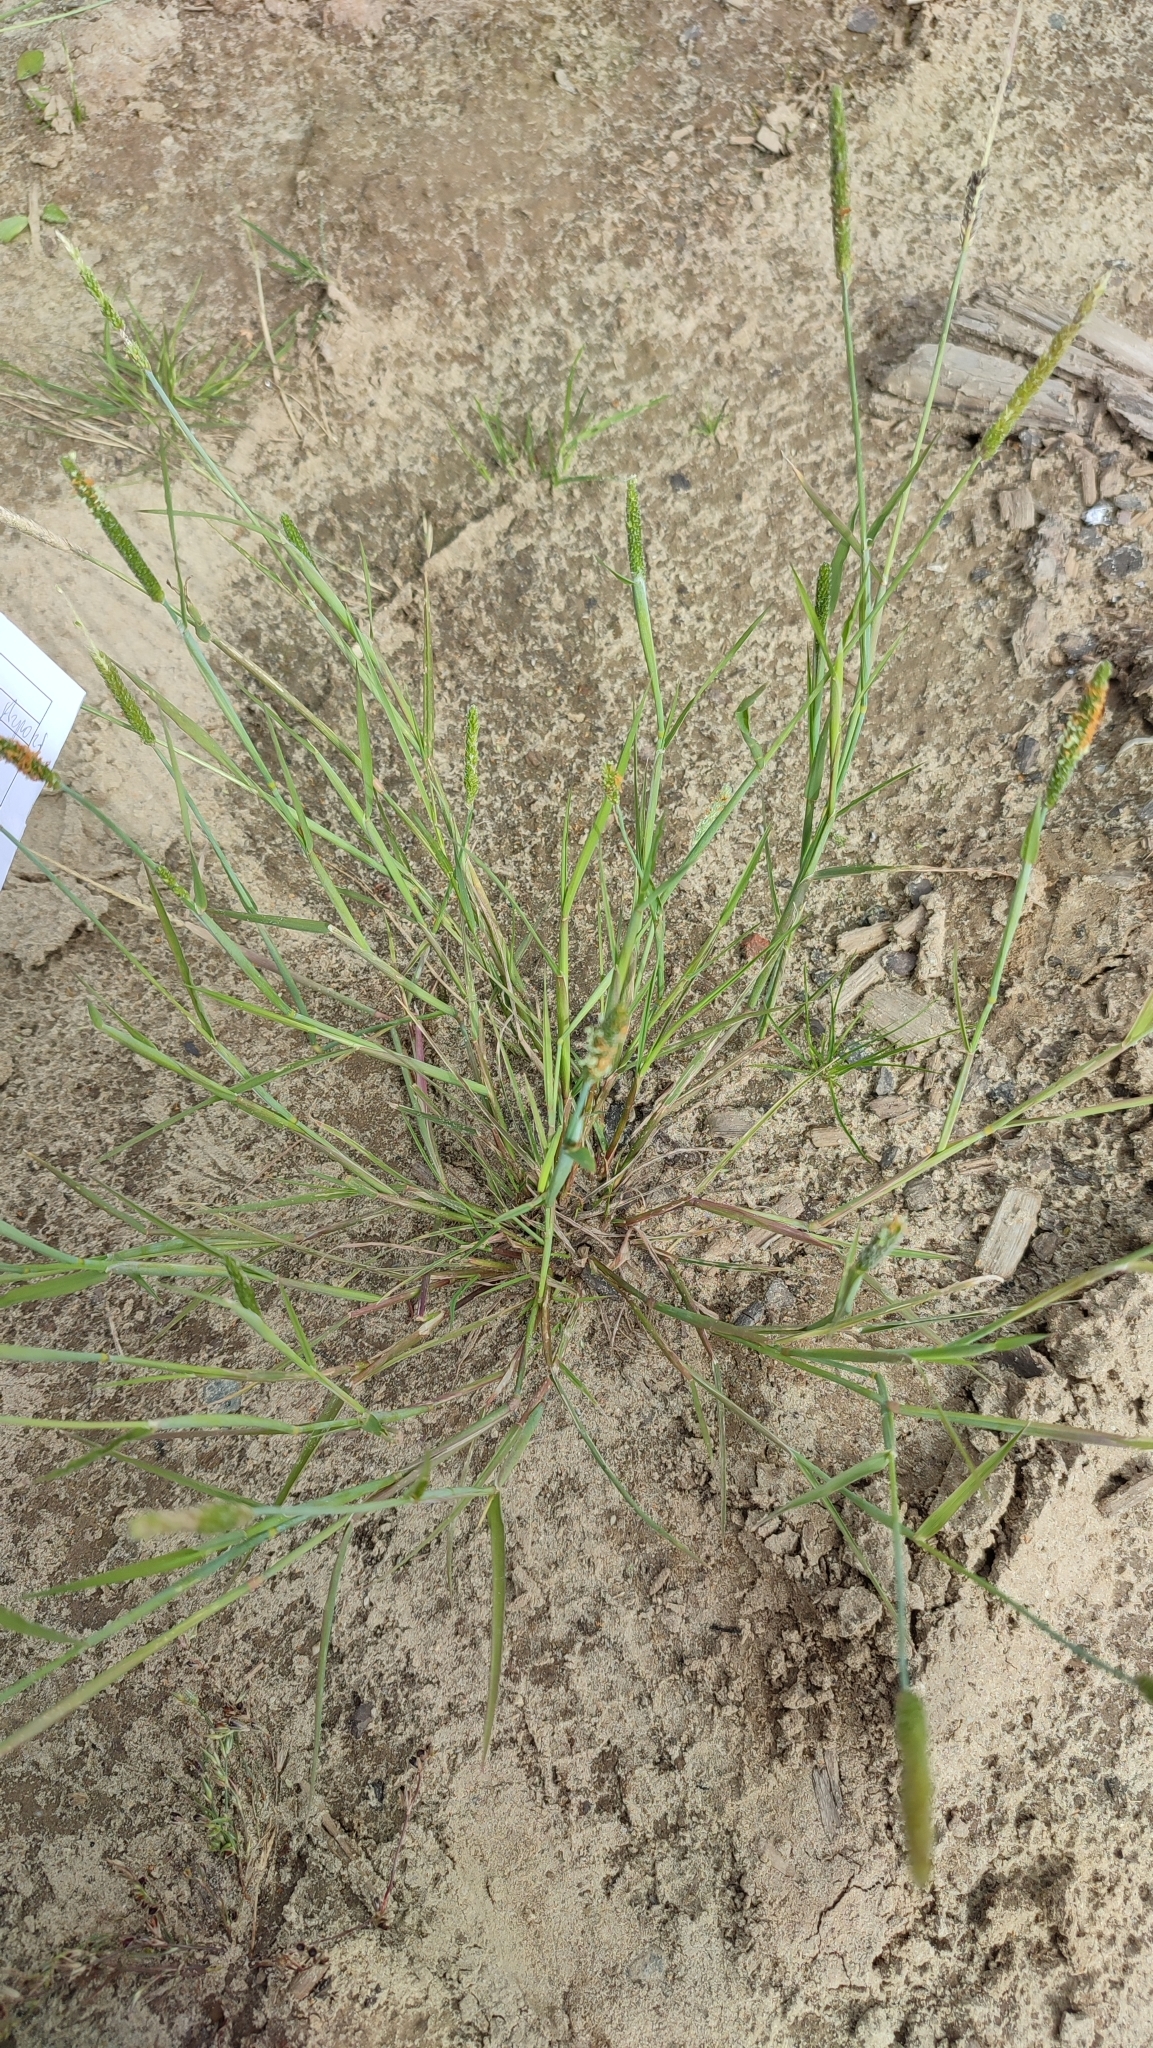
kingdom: Plantae
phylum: Tracheophyta
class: Liliopsida
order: Poales
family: Poaceae
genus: Alopecurus
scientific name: Alopecurus aequalis
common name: Orange foxtail
